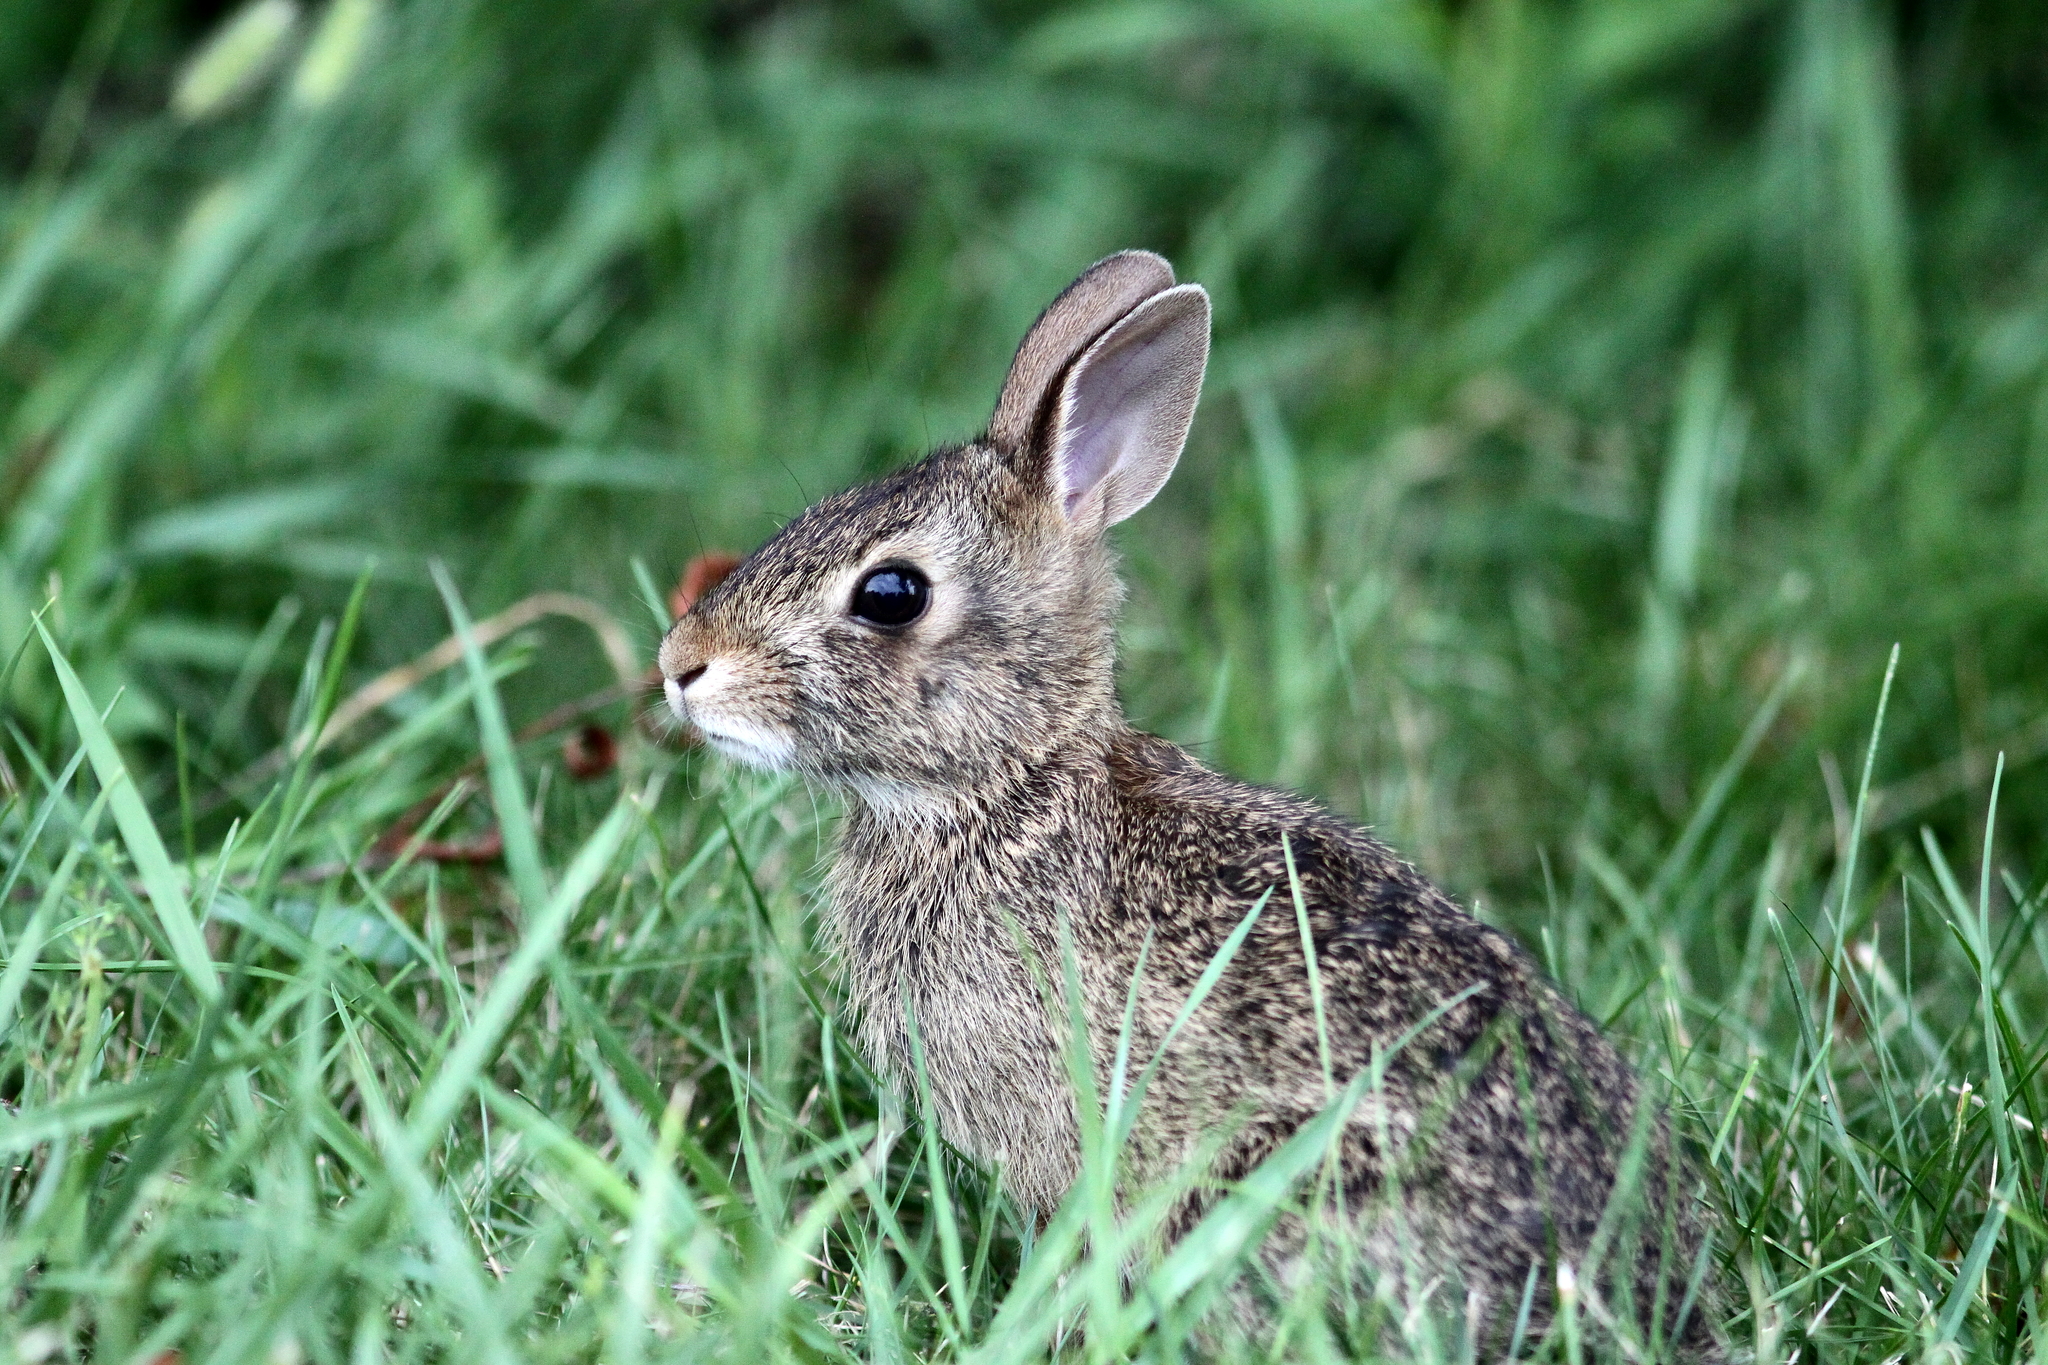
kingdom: Animalia
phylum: Chordata
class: Mammalia
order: Lagomorpha
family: Leporidae
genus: Sylvilagus
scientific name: Sylvilagus floridanus
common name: Eastern cottontail
